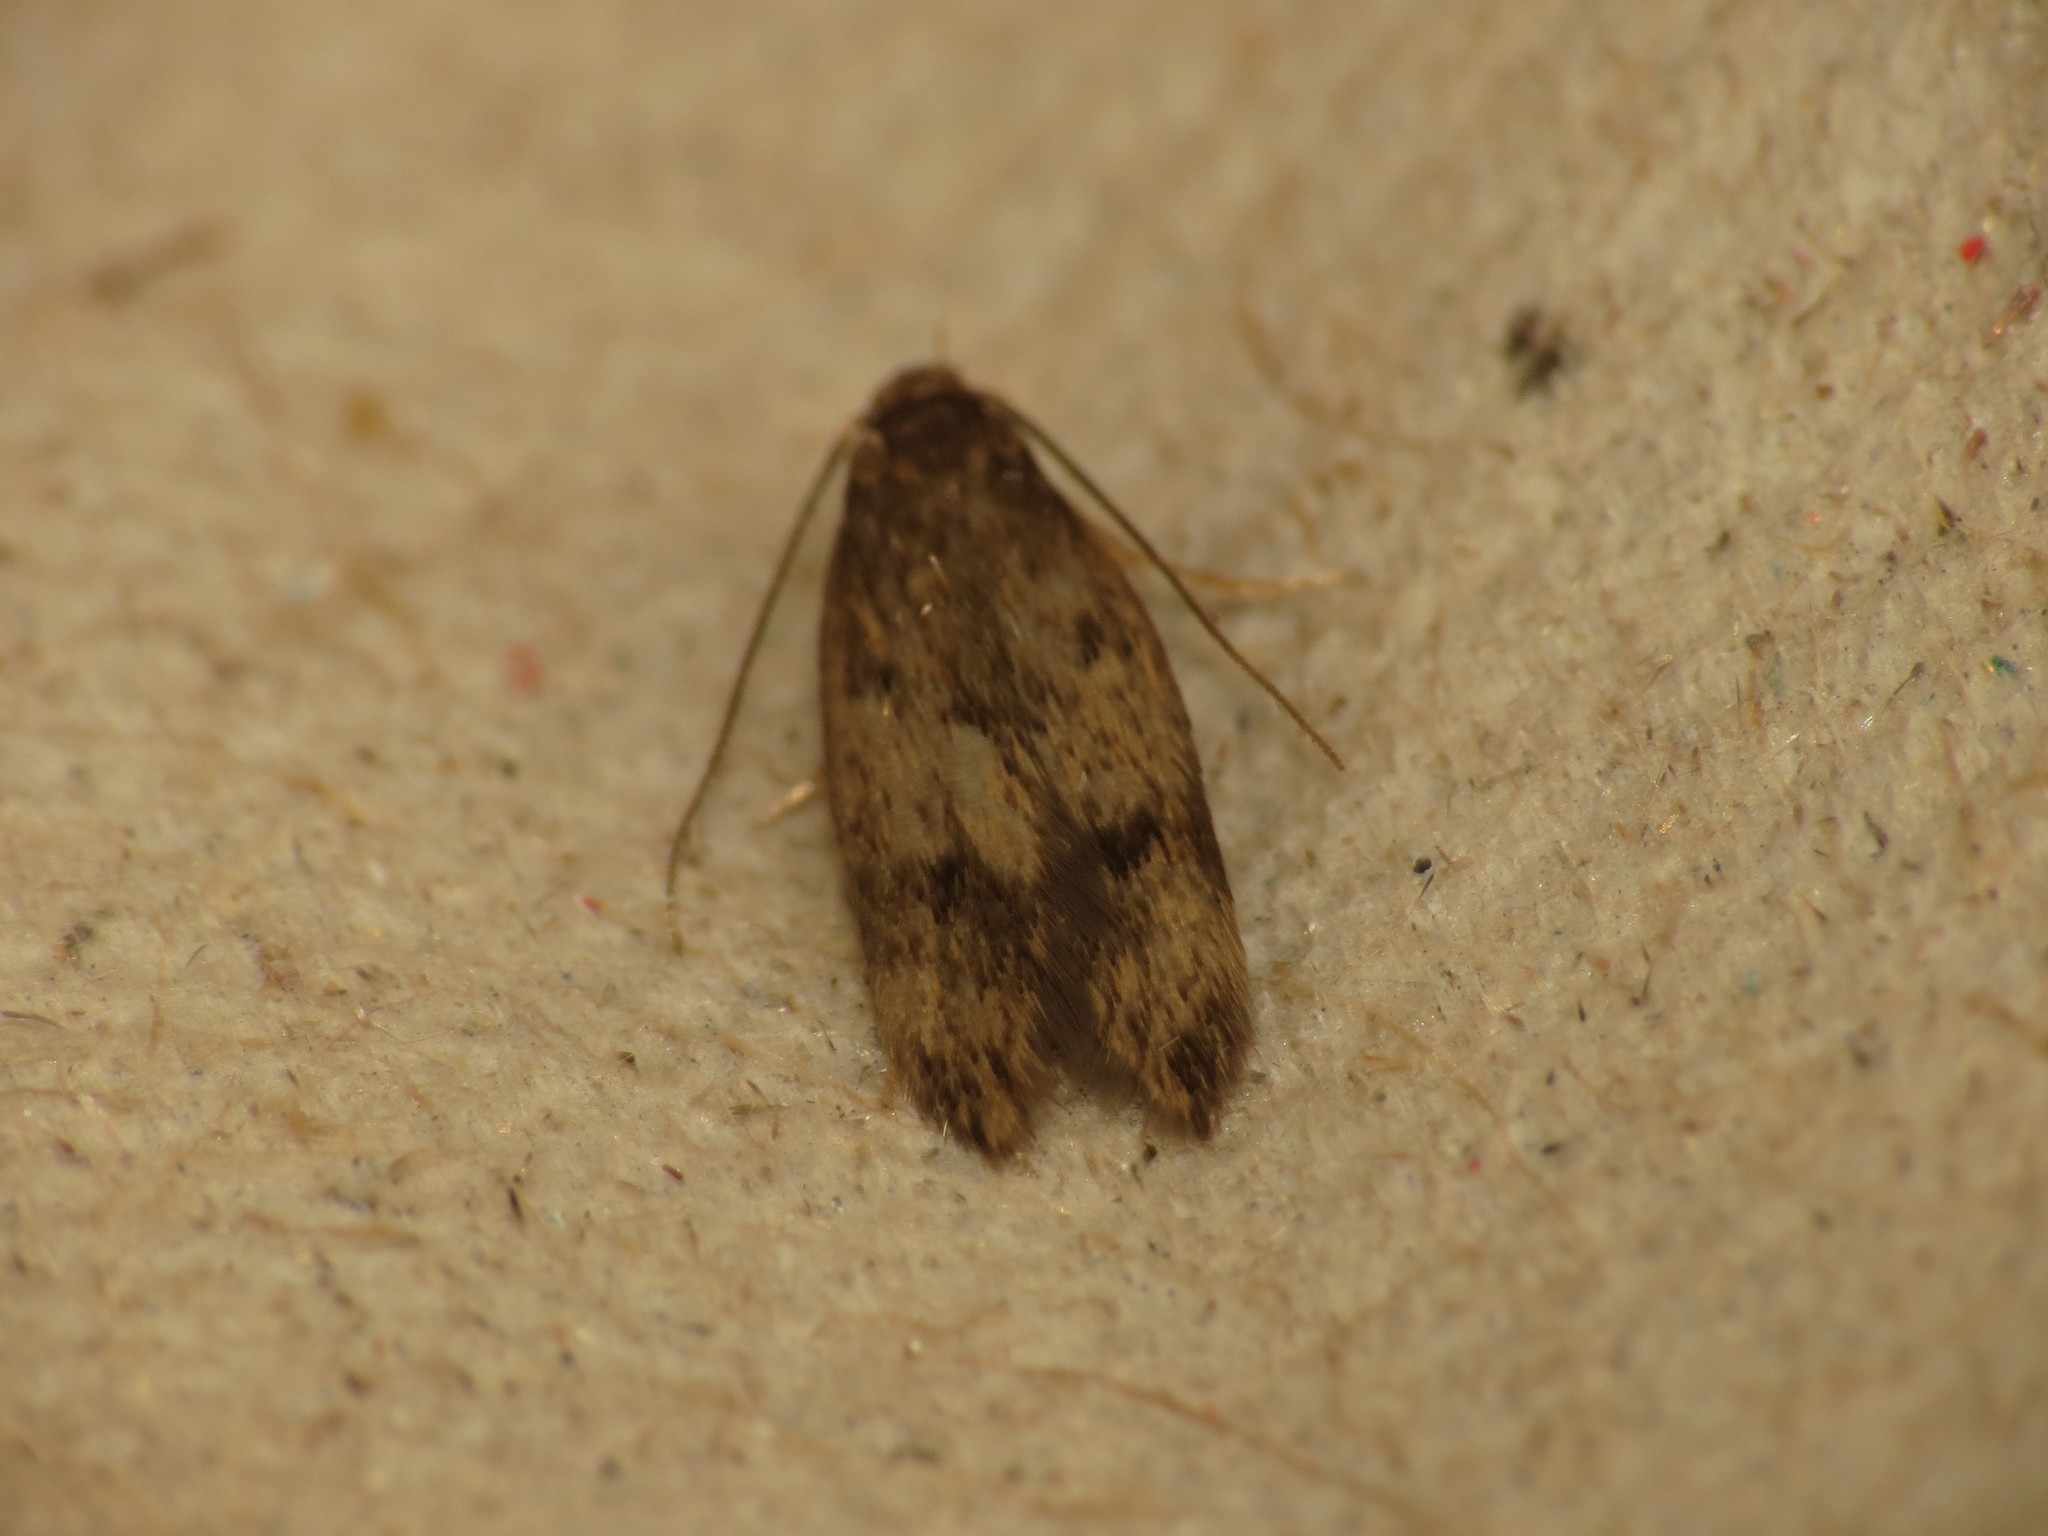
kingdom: Animalia
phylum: Arthropoda
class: Insecta
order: Lepidoptera
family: Oecophoridae
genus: Borkhausenia
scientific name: Borkhausenia fuscescens
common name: Small dingy tubic
